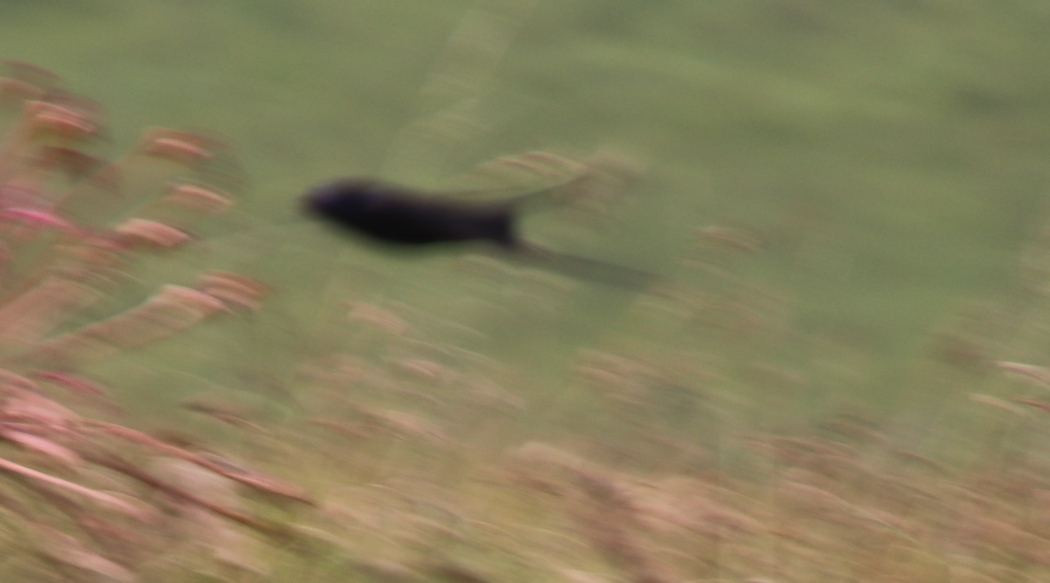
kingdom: Animalia
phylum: Chordata
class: Aves
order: Passeriformes
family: Hirundinidae
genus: Hirundo
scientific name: Hirundo atrocaerulea
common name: Blue swallow
